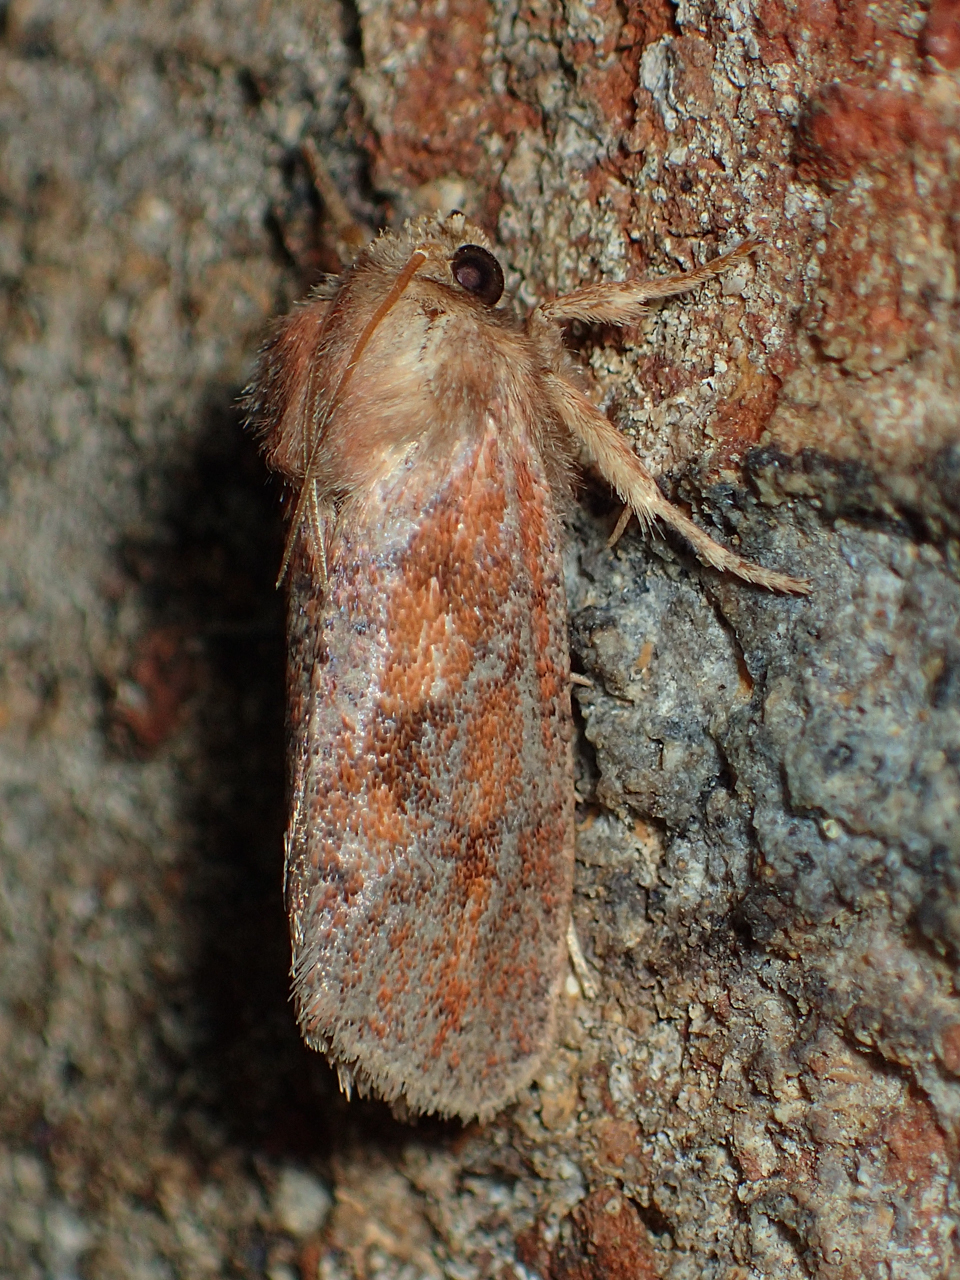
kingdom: Animalia
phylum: Arthropoda
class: Insecta
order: Lepidoptera
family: Tineidae
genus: Acrolophus
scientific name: Acrolophus plumifrontella
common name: Eastern grass tubeworm moth
